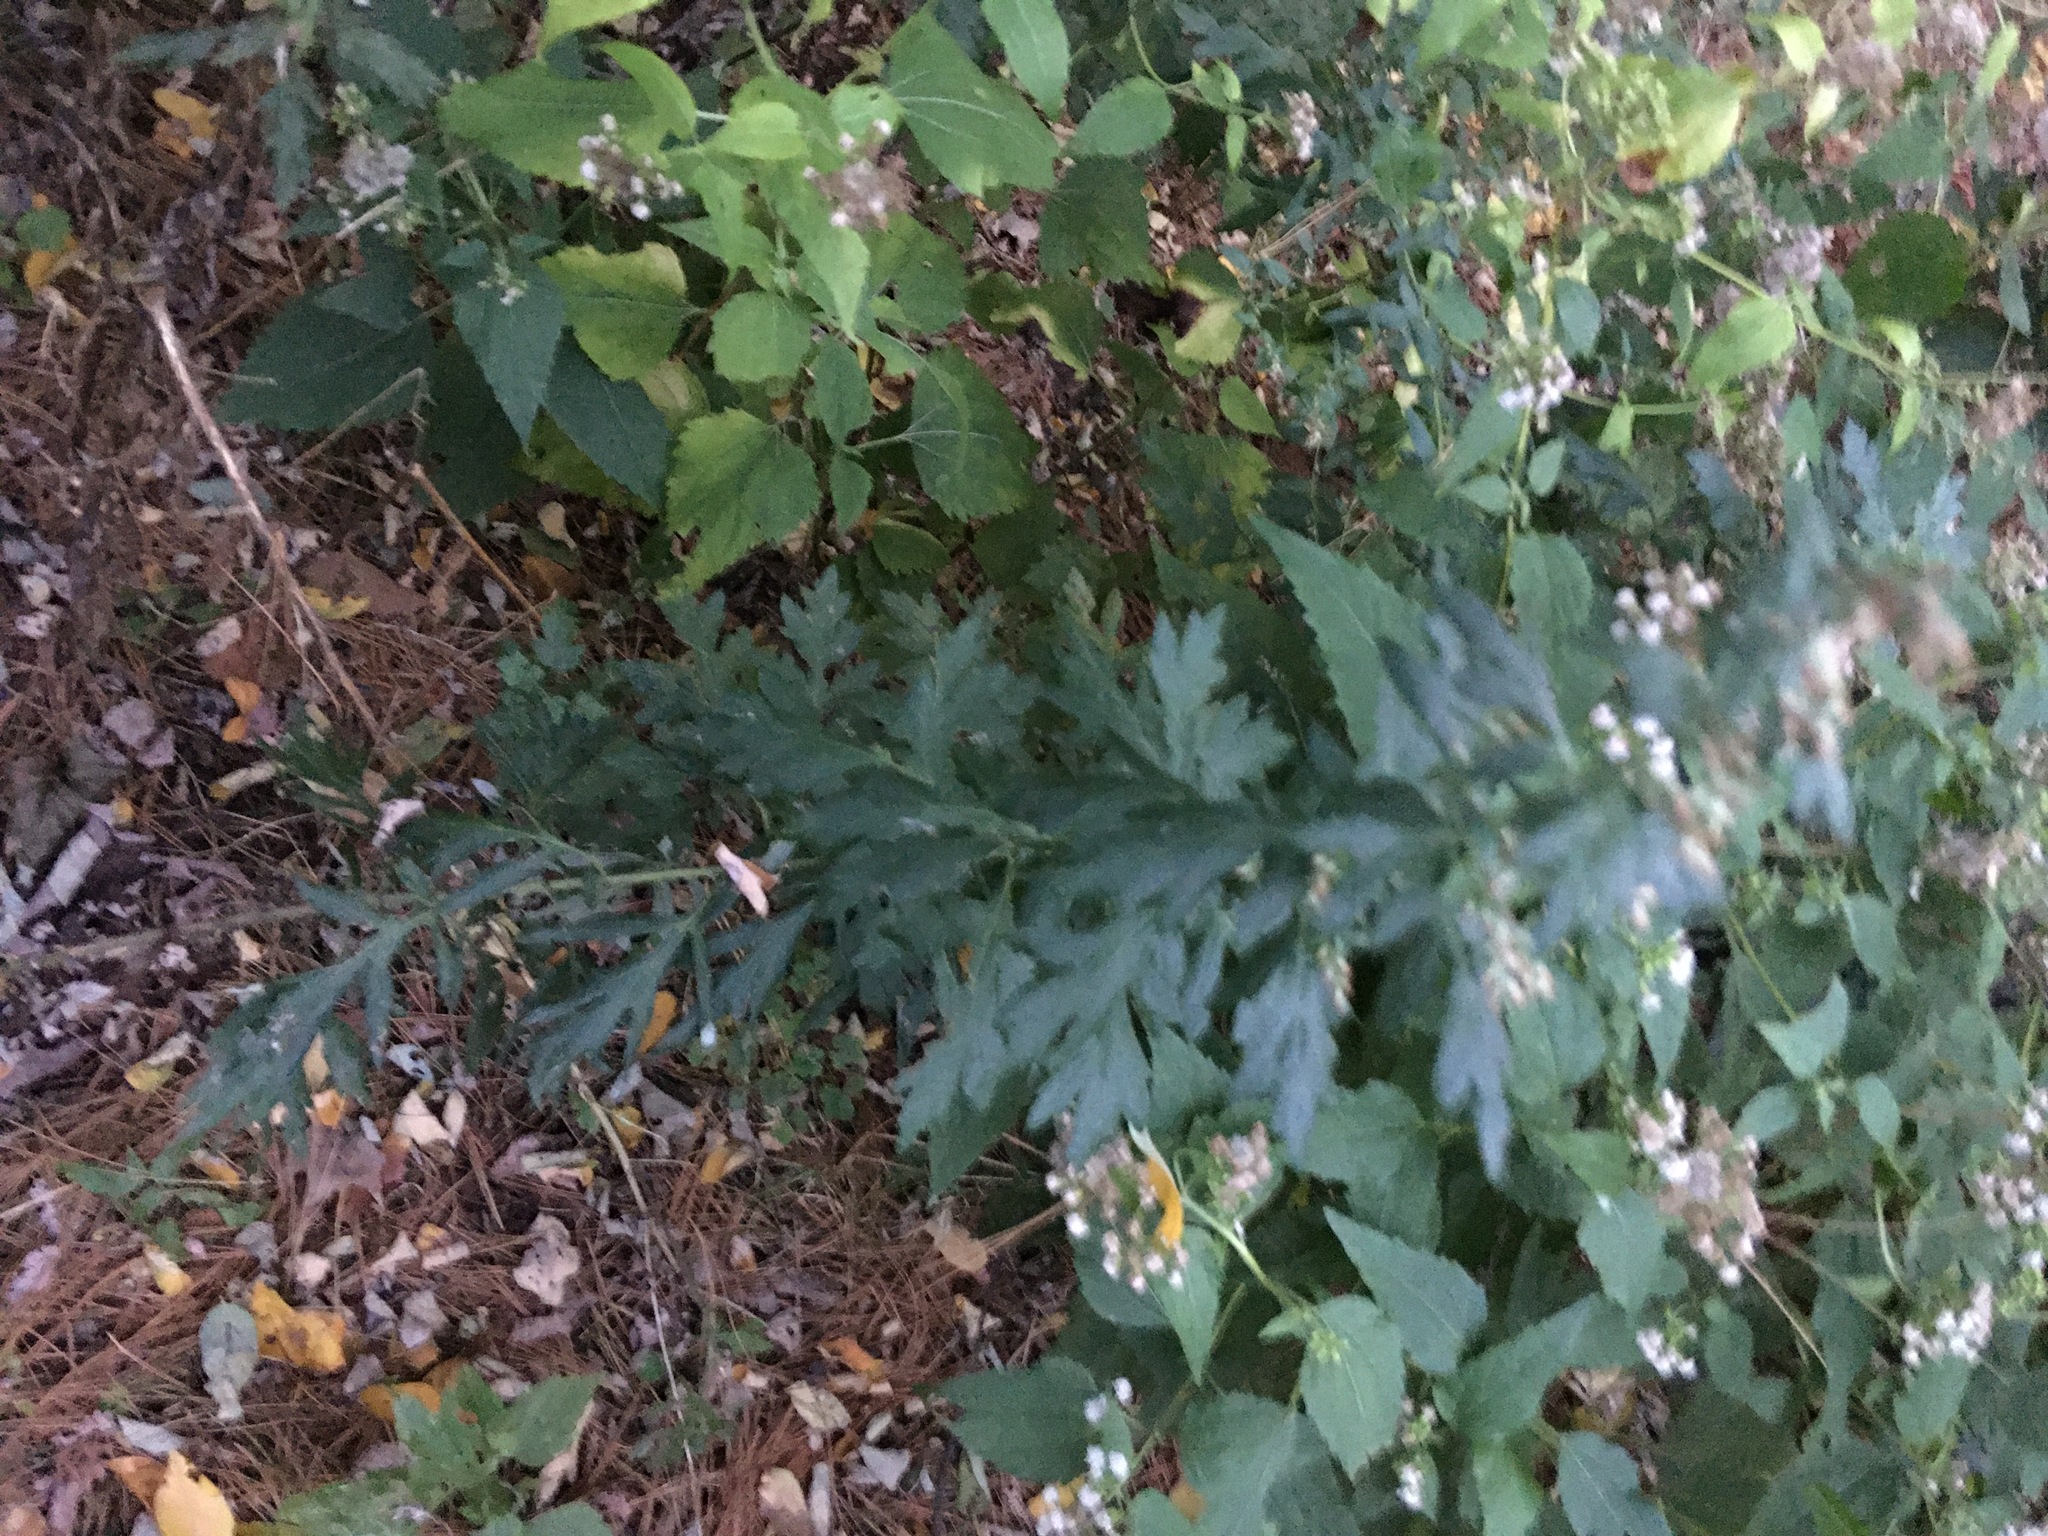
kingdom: Plantae
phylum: Tracheophyta
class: Magnoliopsida
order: Asterales
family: Asteraceae
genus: Artemisia
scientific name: Artemisia vulgaris
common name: Mugwort
